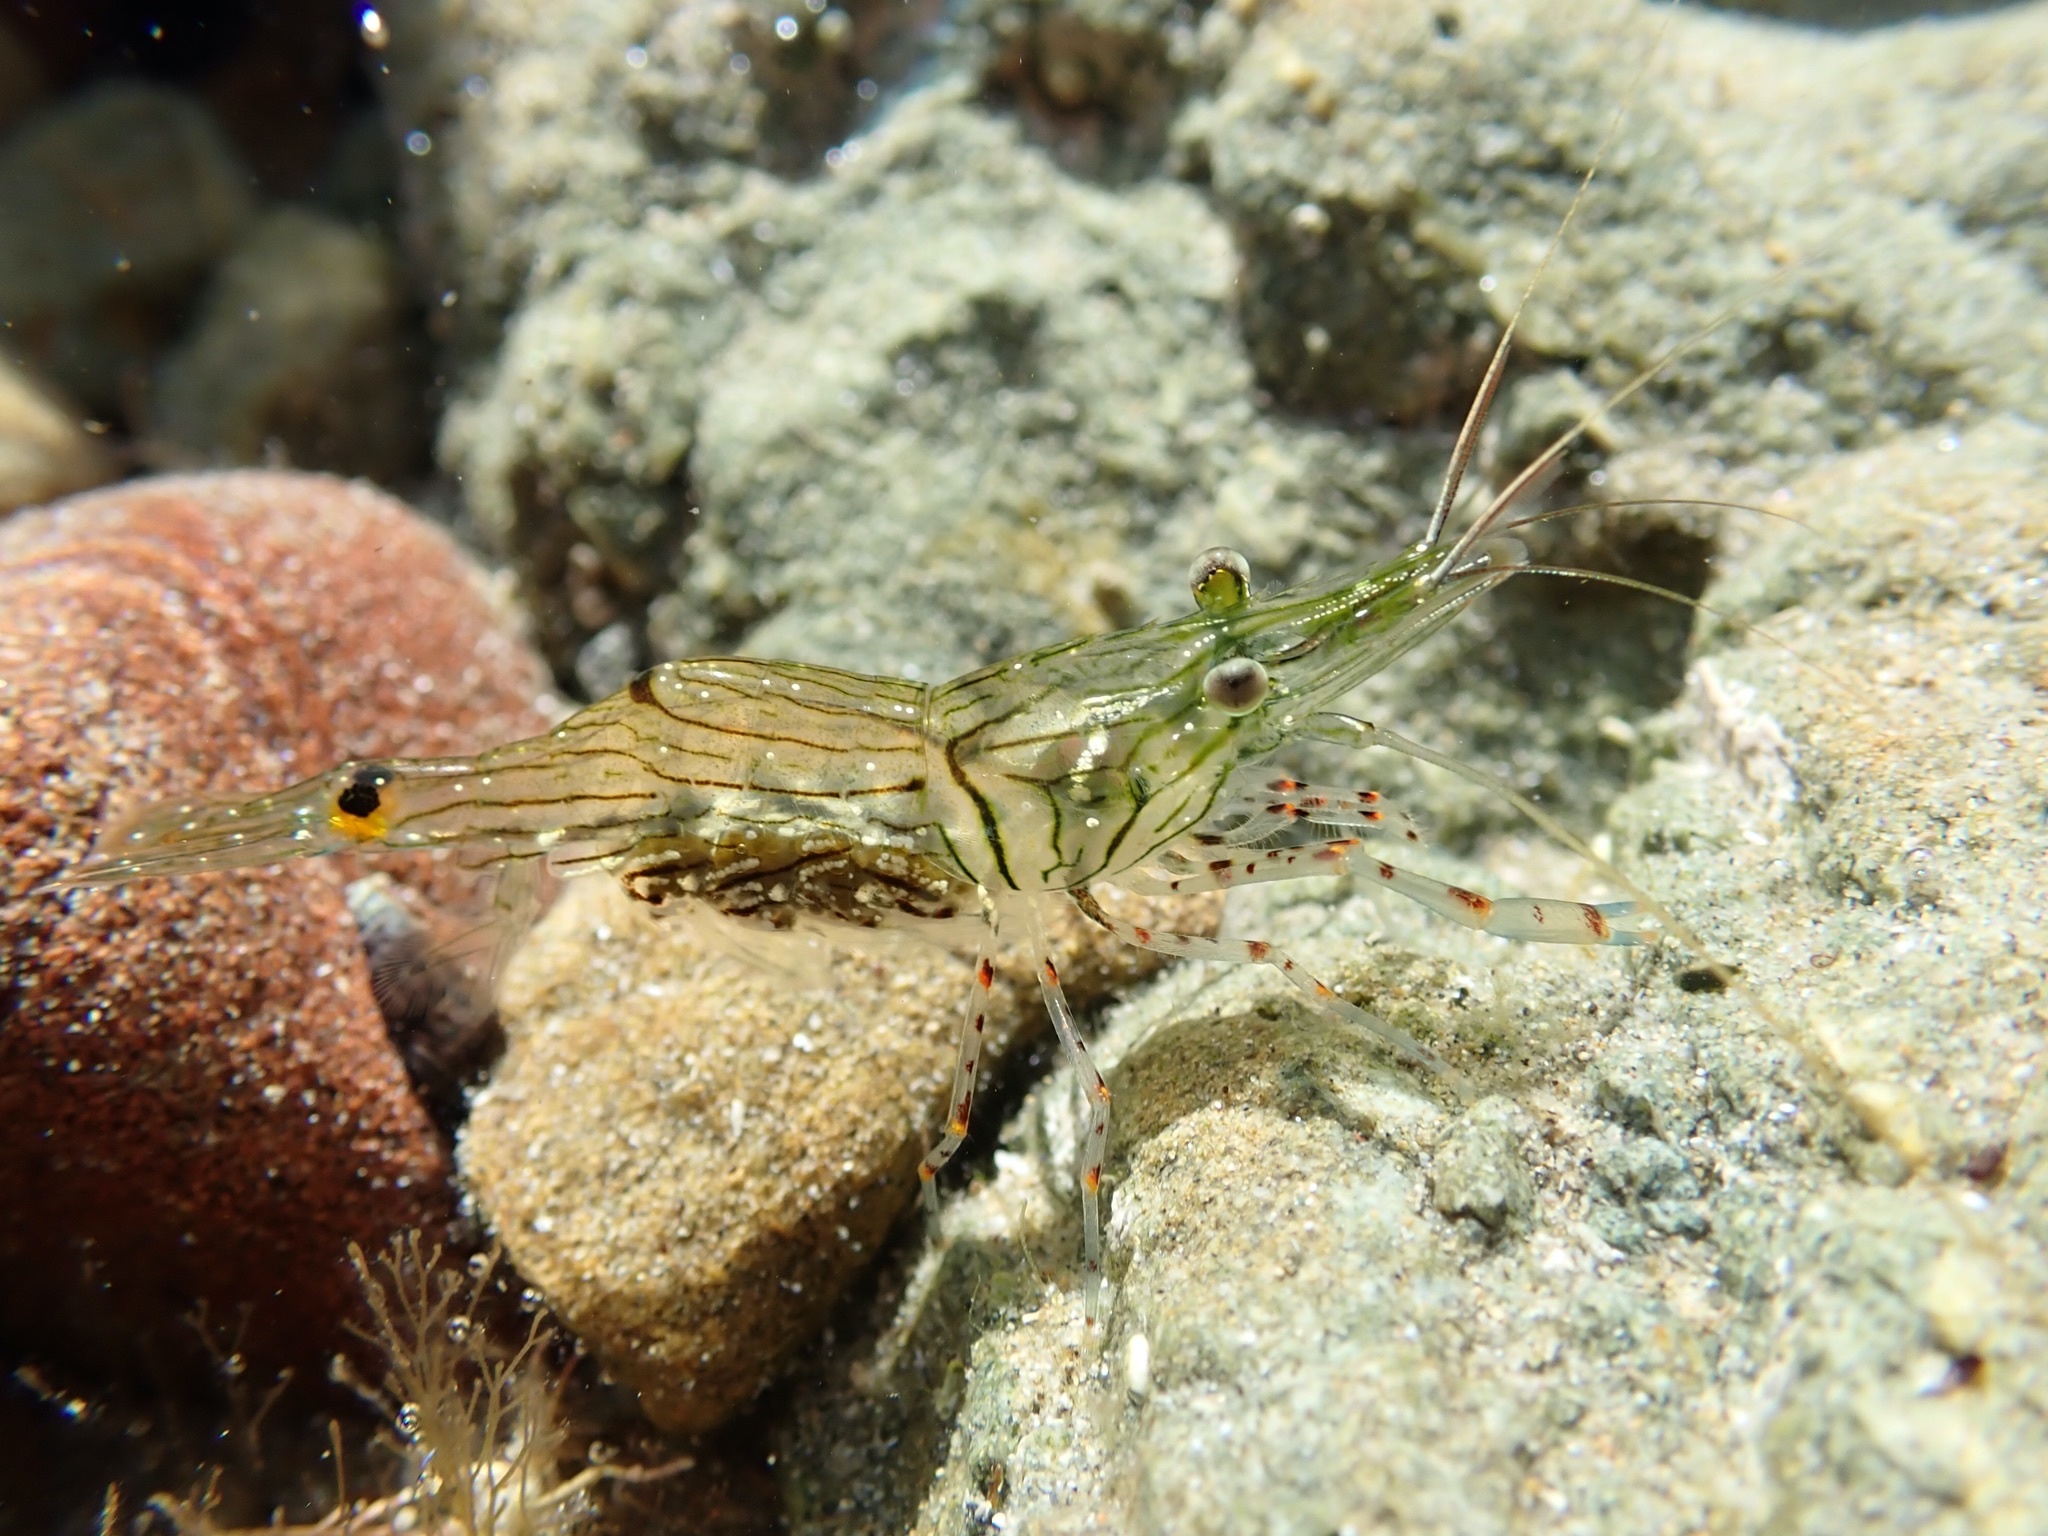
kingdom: Animalia
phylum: Arthropoda
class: Malacostraca
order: Decapoda
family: Palaemonidae
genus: Palaemon
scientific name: Palaemon affinis
